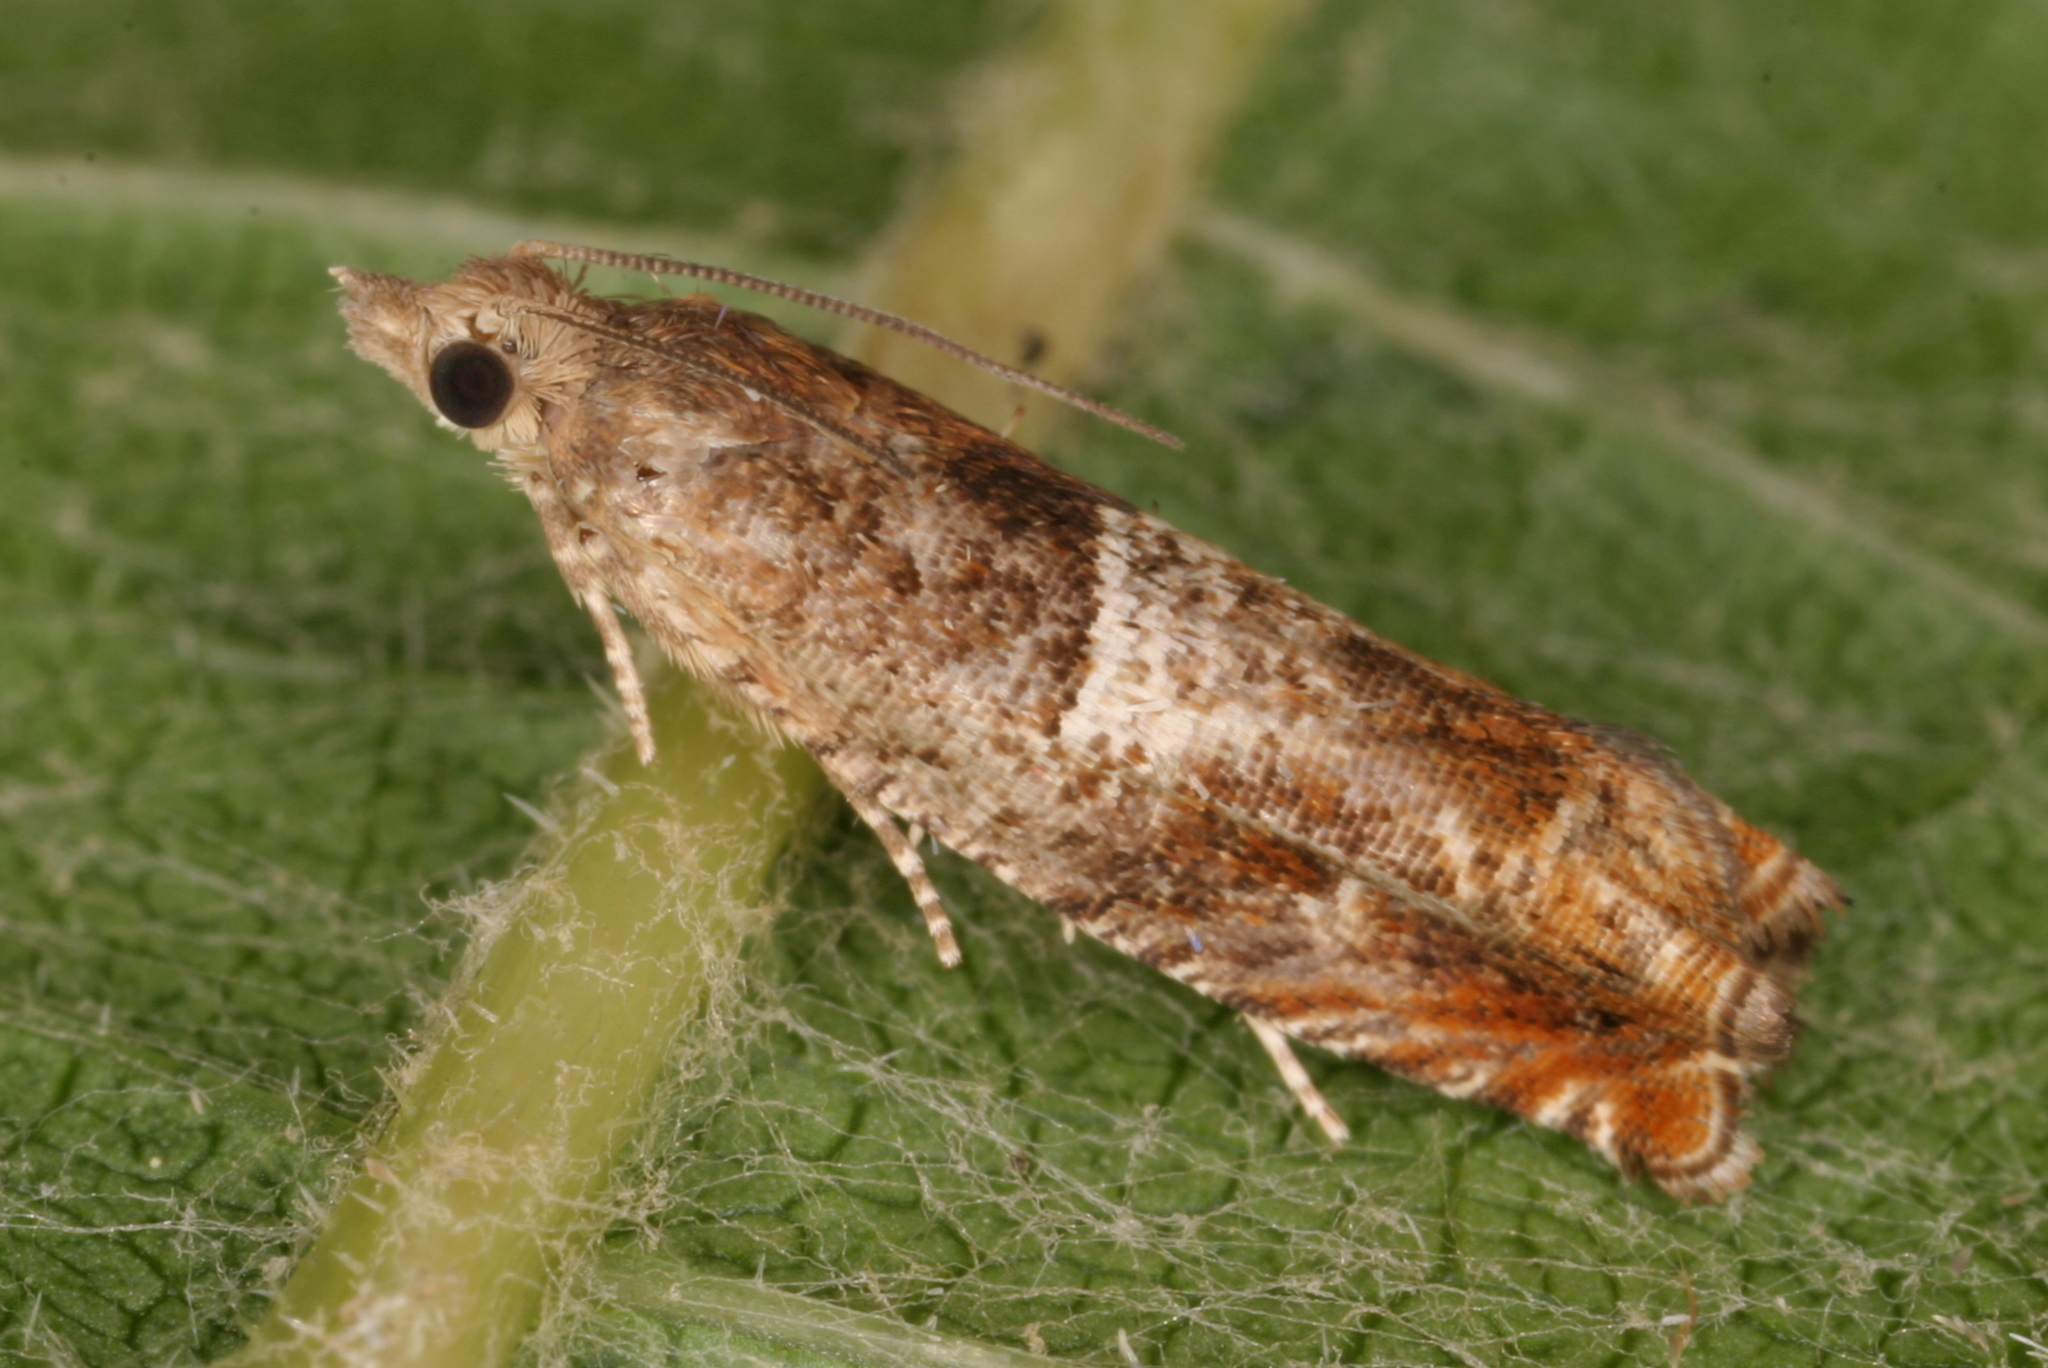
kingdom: Animalia
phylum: Arthropoda
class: Insecta
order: Lepidoptera
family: Tortricidae
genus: Epinotia
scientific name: Epinotia tenerana
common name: Nut bud moth
